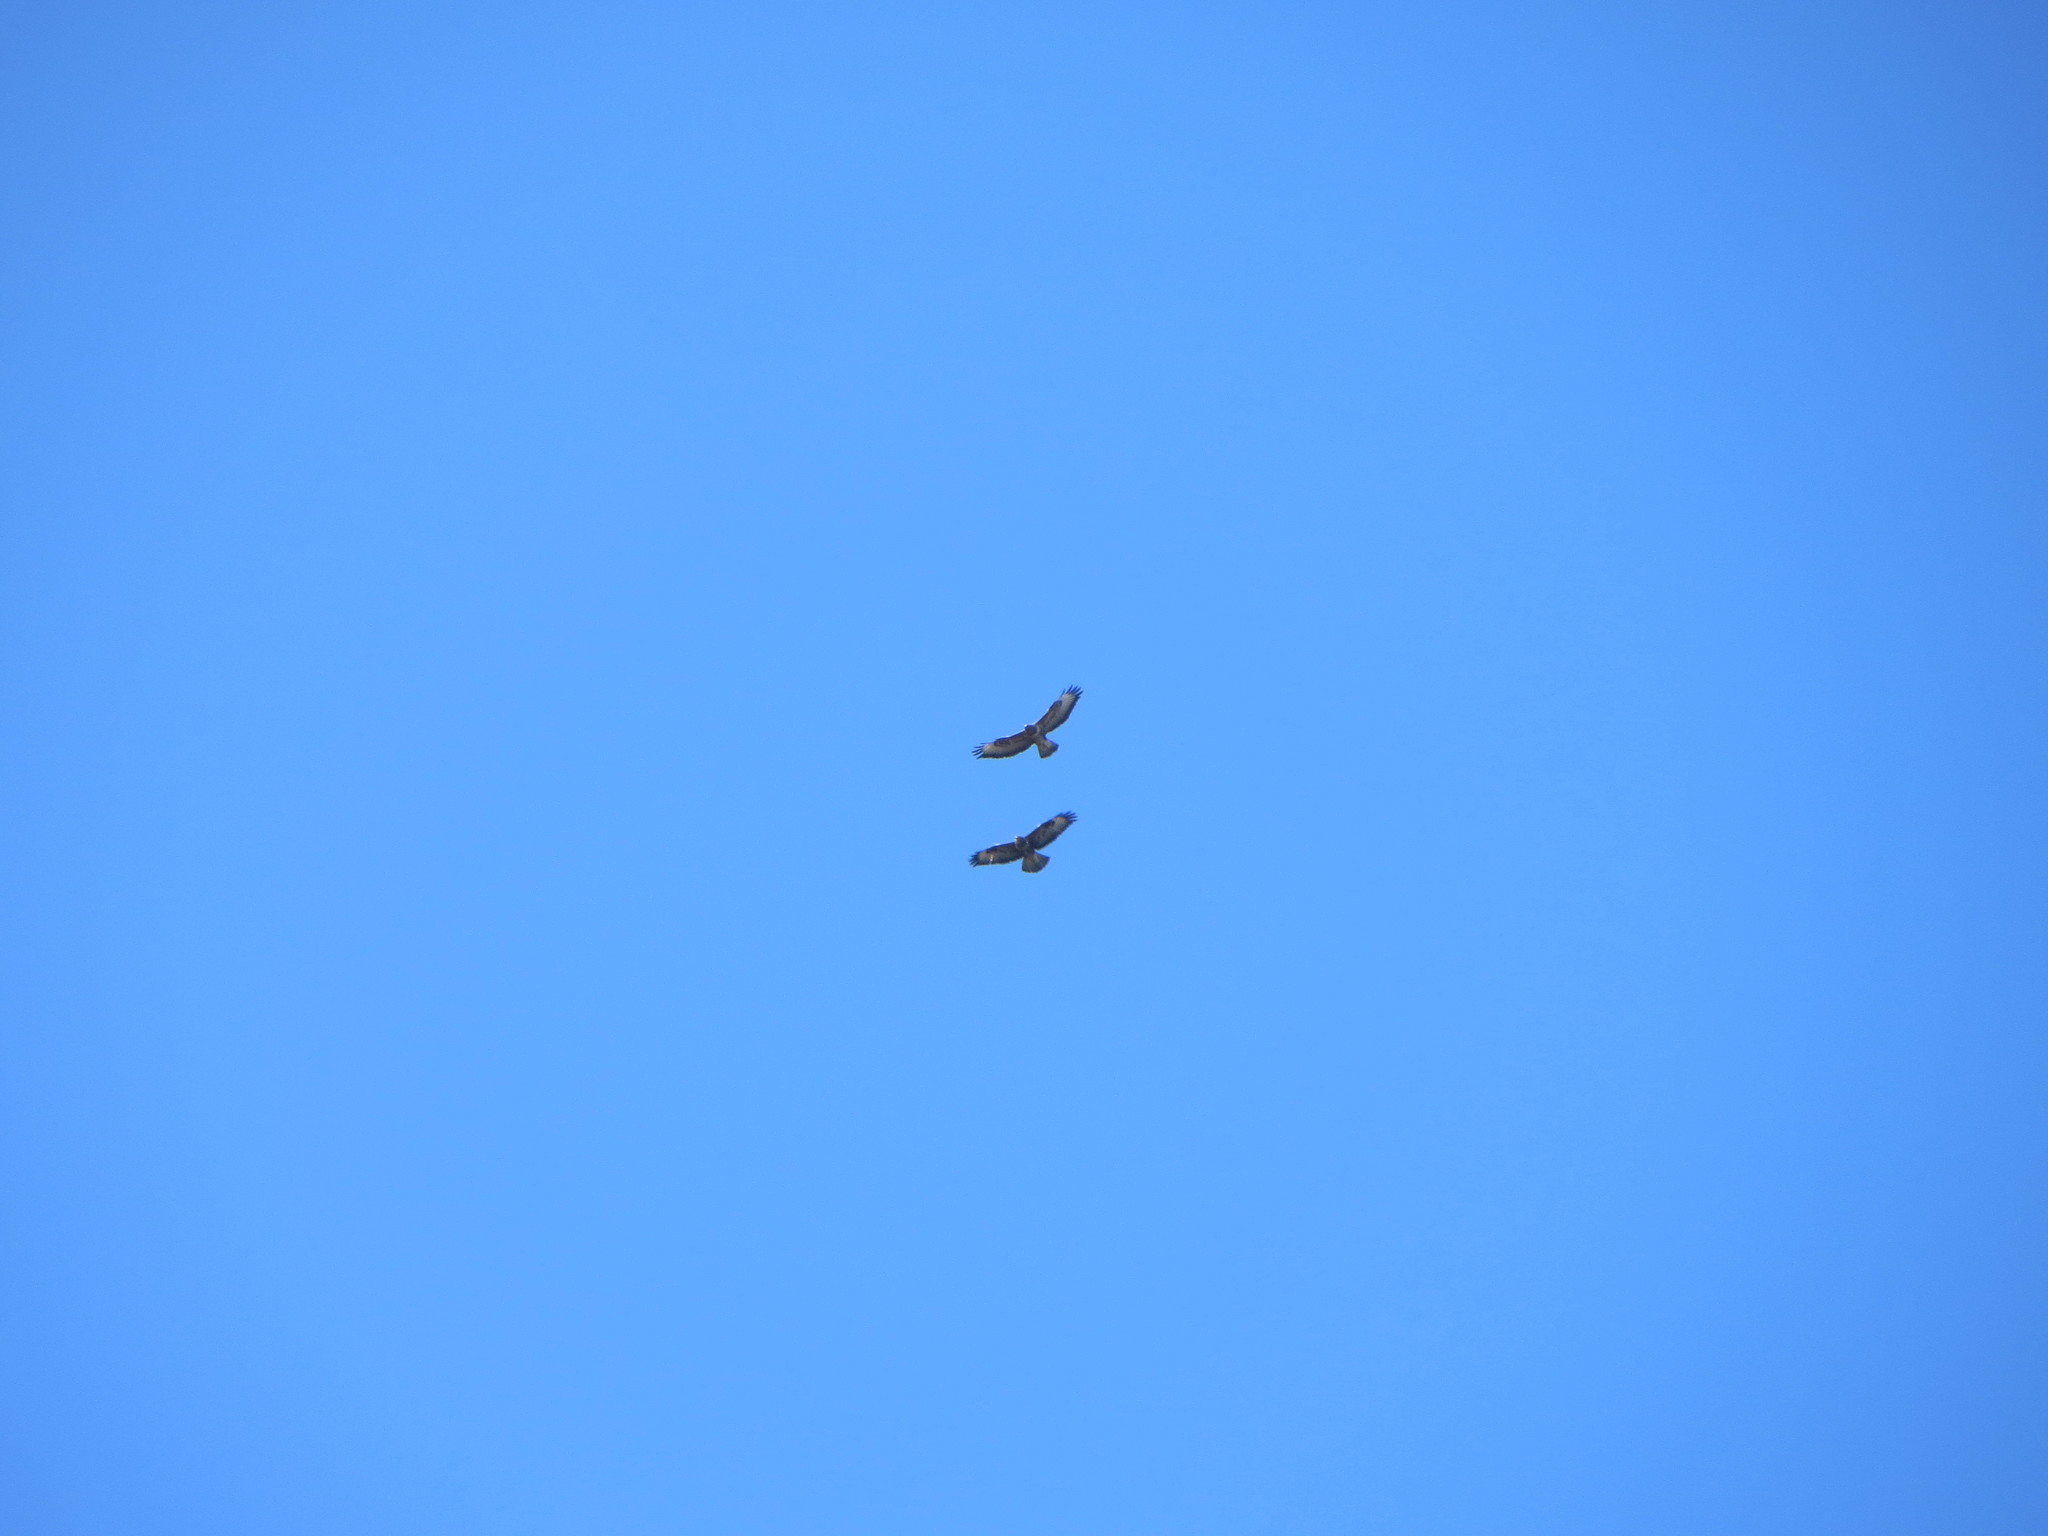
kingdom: Animalia
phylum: Chordata
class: Aves
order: Accipitriformes
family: Accipitridae
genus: Buteo
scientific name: Buteo buteo
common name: Common buzzard
